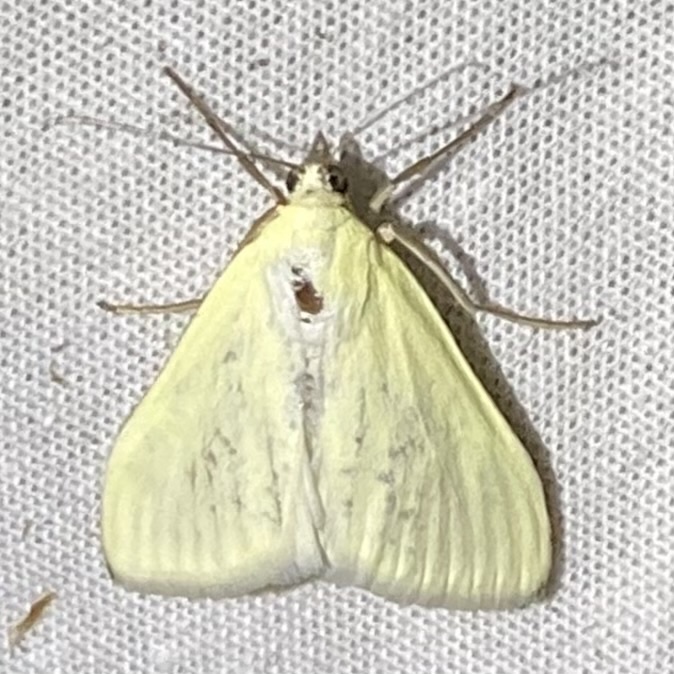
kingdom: Animalia
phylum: Arthropoda
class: Insecta
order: Lepidoptera
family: Crambidae
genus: Sitochroa
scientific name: Sitochroa palealis
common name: Greenish-yellow sitochroa moth
